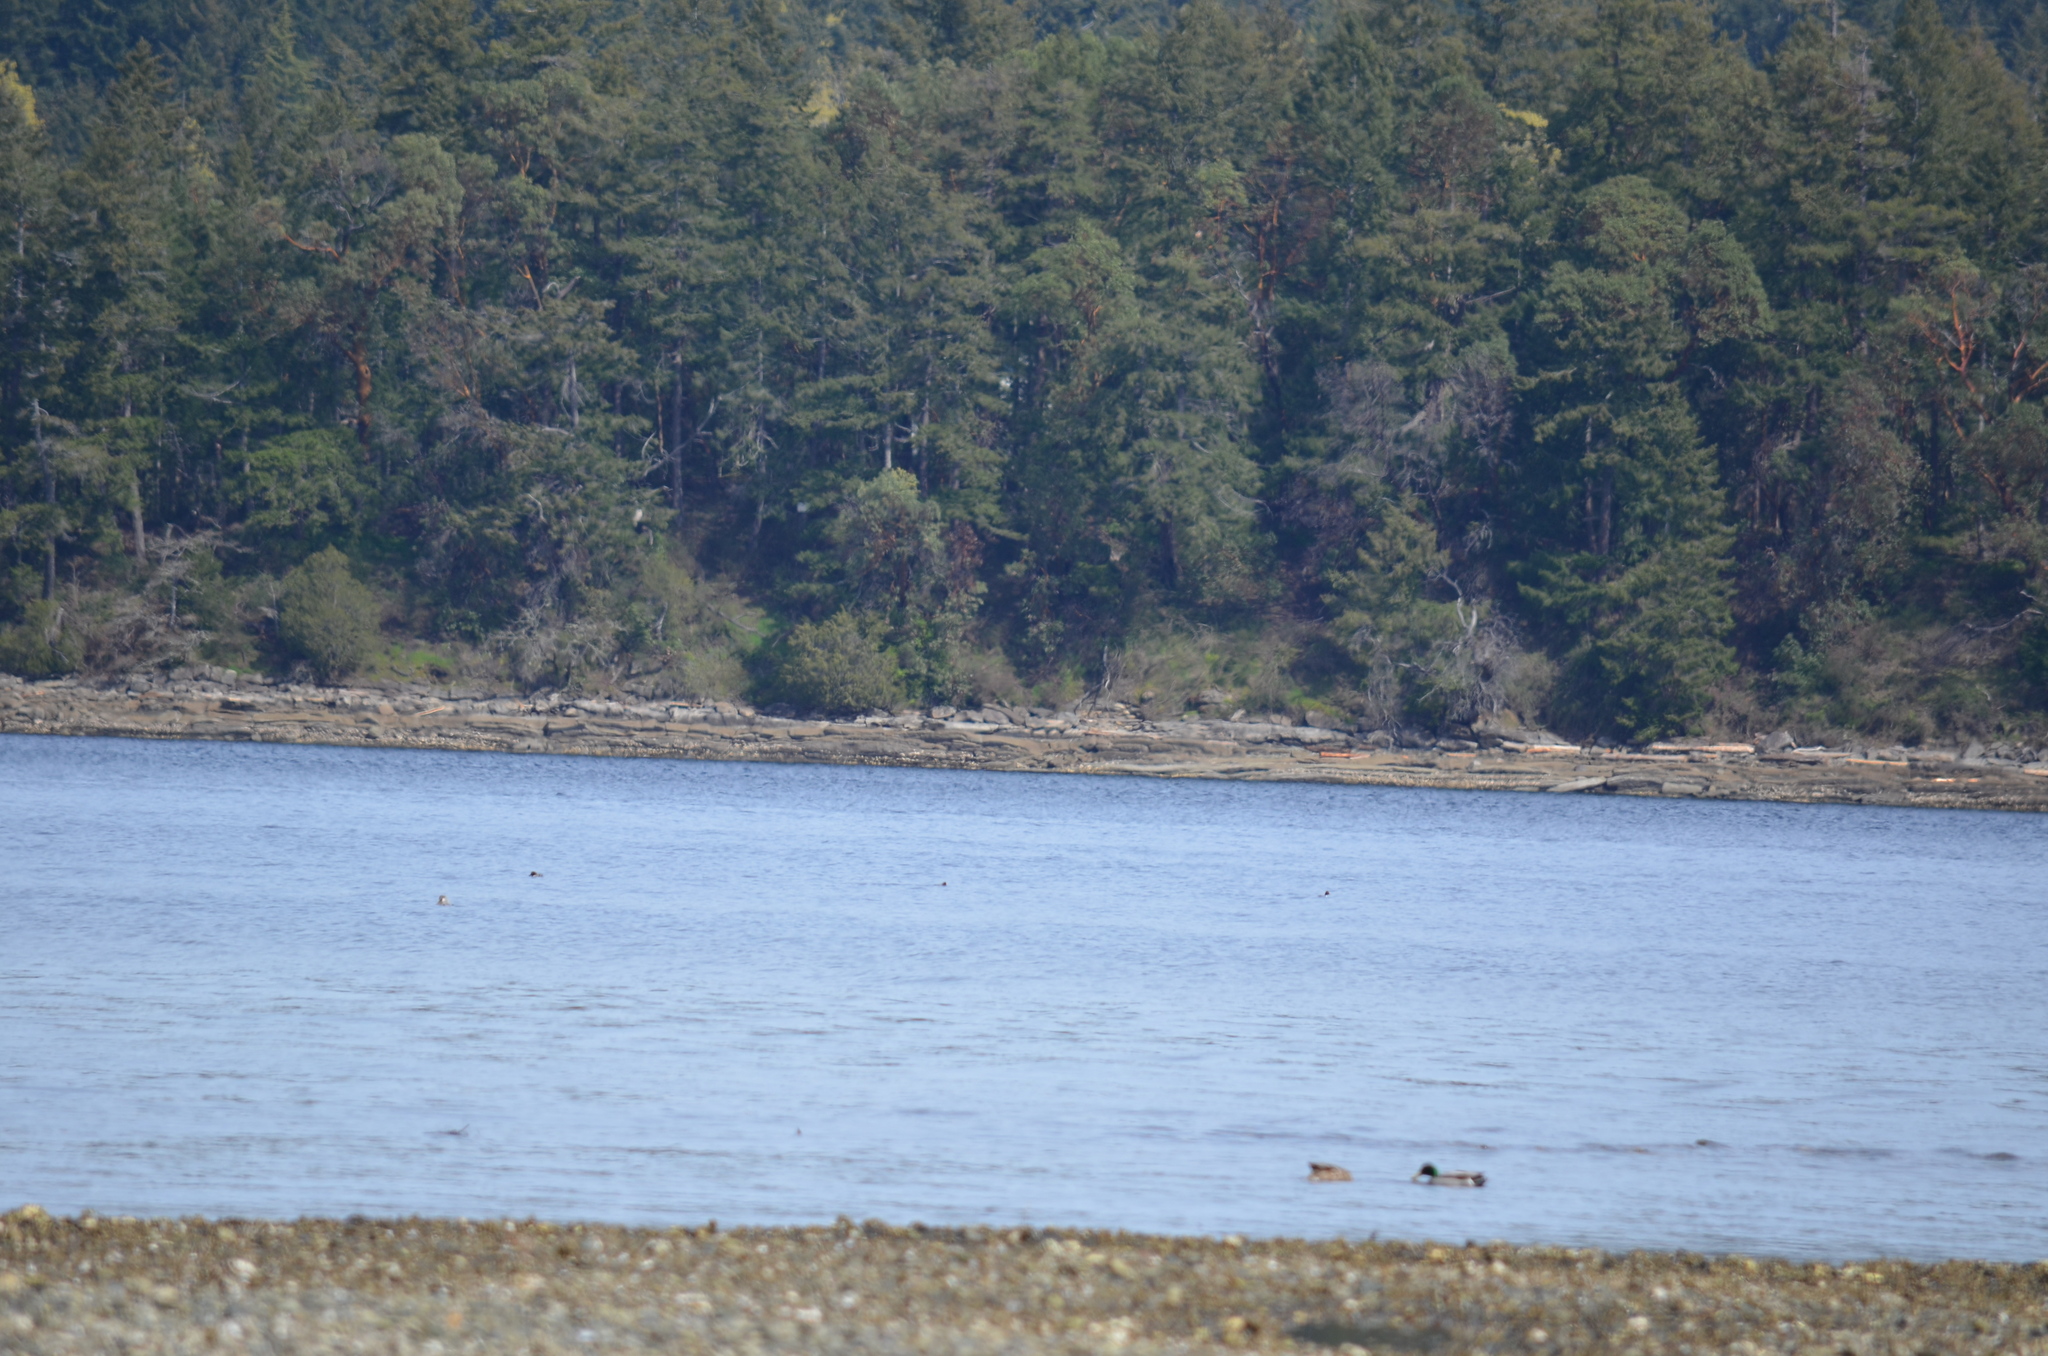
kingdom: Animalia
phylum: Chordata
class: Aves
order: Anseriformes
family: Anatidae
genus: Anas
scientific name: Anas platyrhynchos
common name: Mallard
